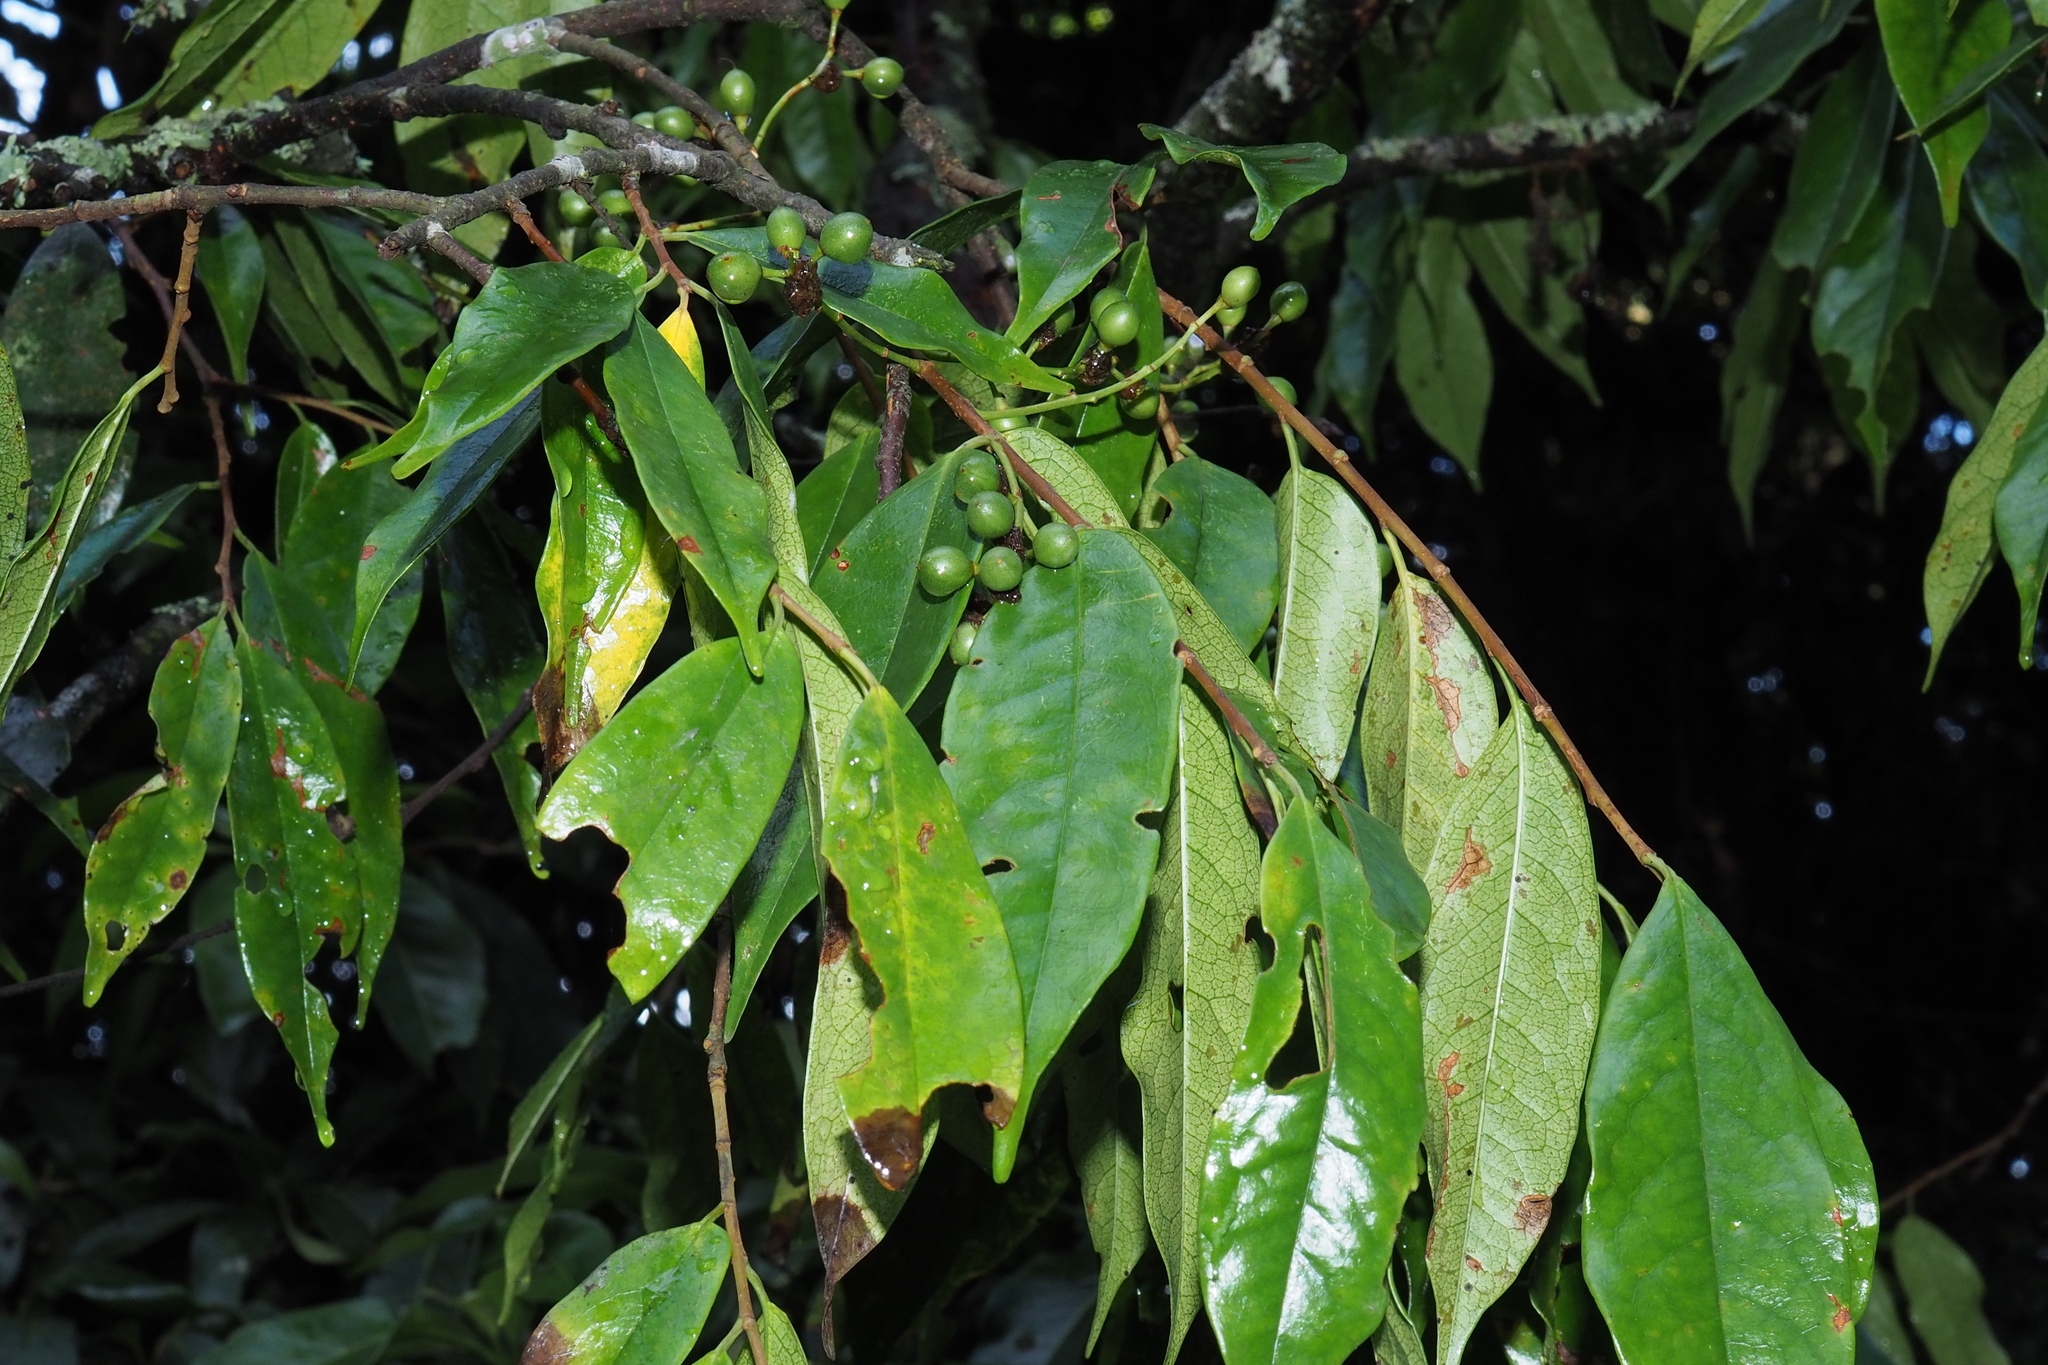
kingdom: Plantae
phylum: Tracheophyta
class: Magnoliopsida
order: Rosales
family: Rosaceae
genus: Prunus
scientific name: Prunus phaeosticta
